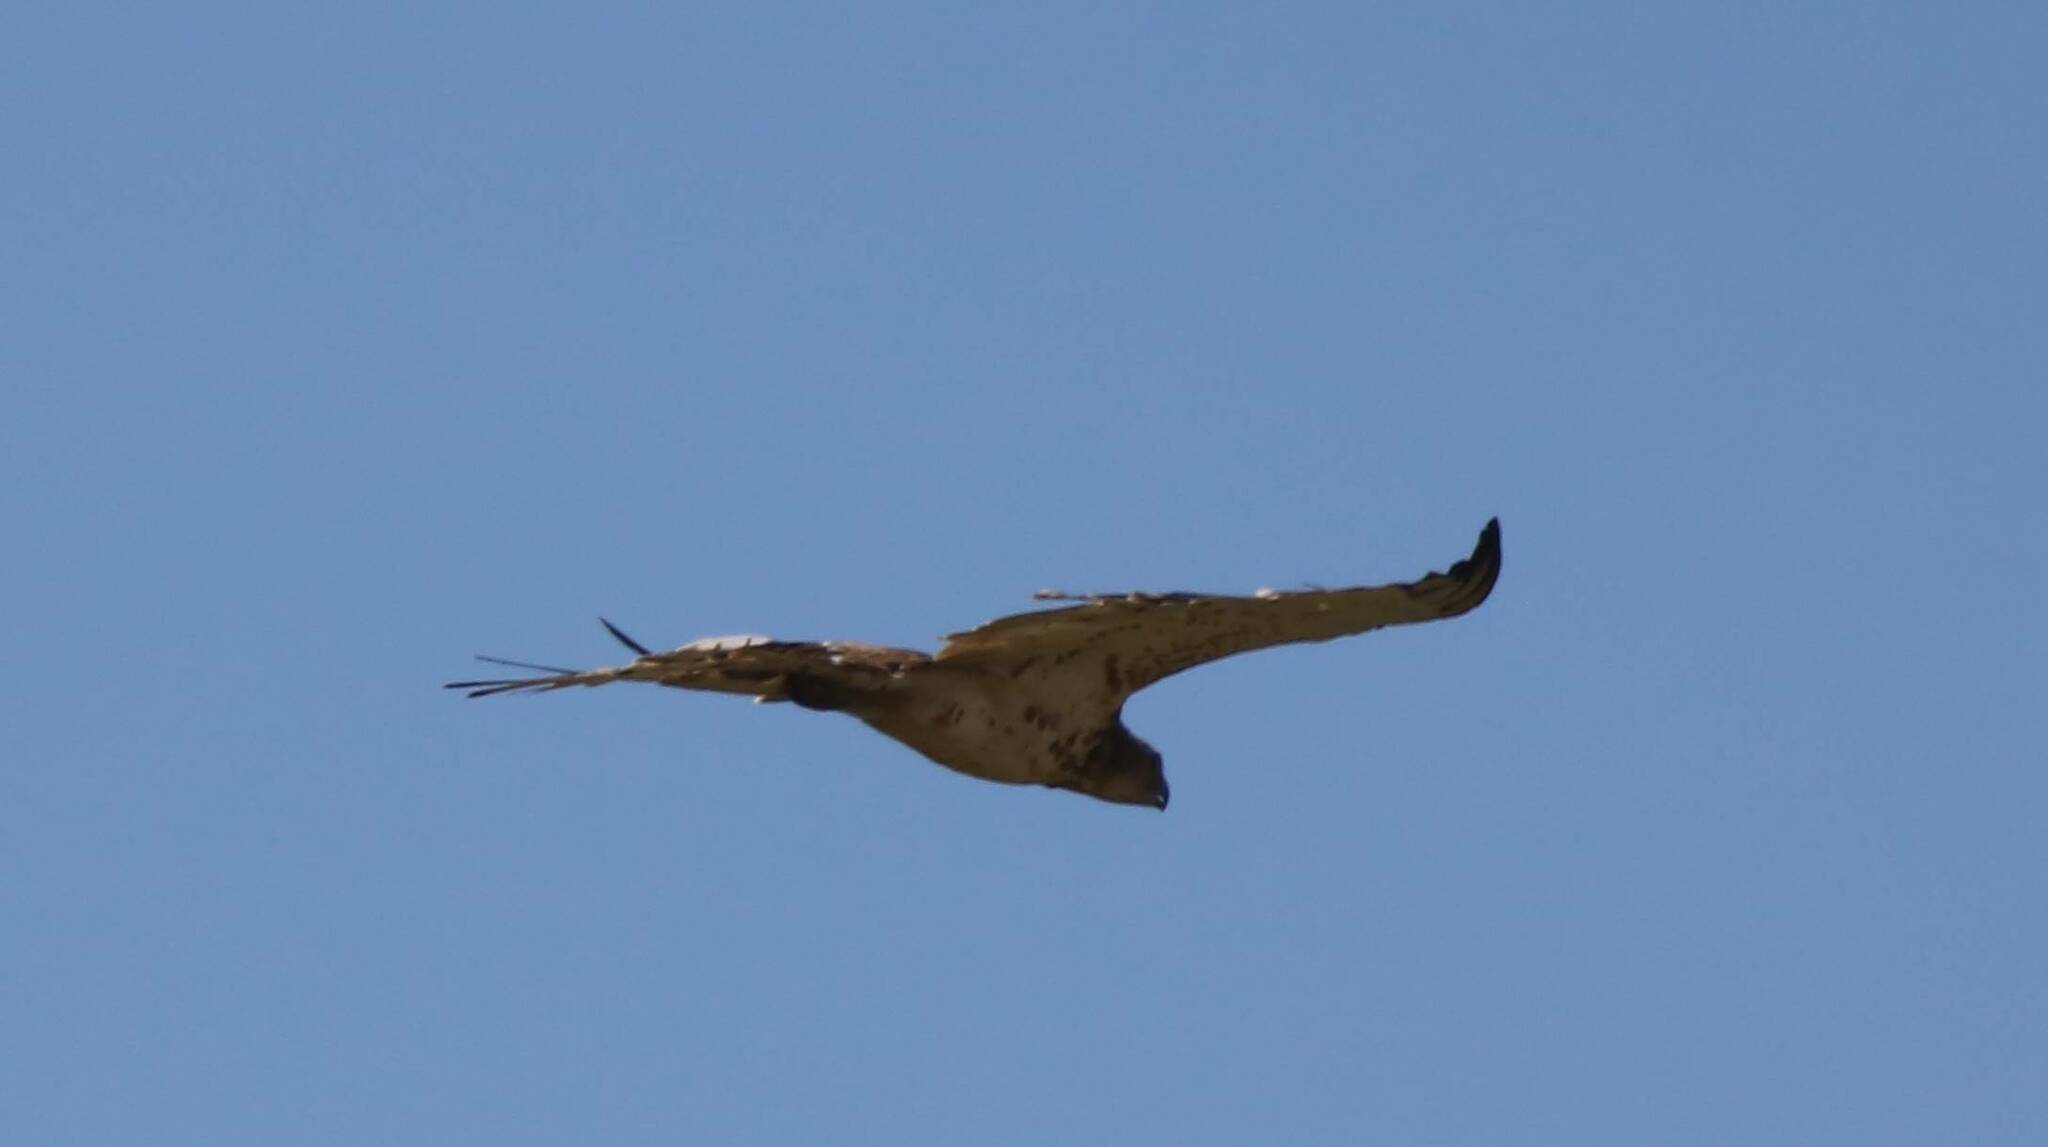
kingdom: Animalia
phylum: Chordata
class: Aves
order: Accipitriformes
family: Accipitridae
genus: Circaetus
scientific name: Circaetus gallicus
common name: Short-toed snake eagle
